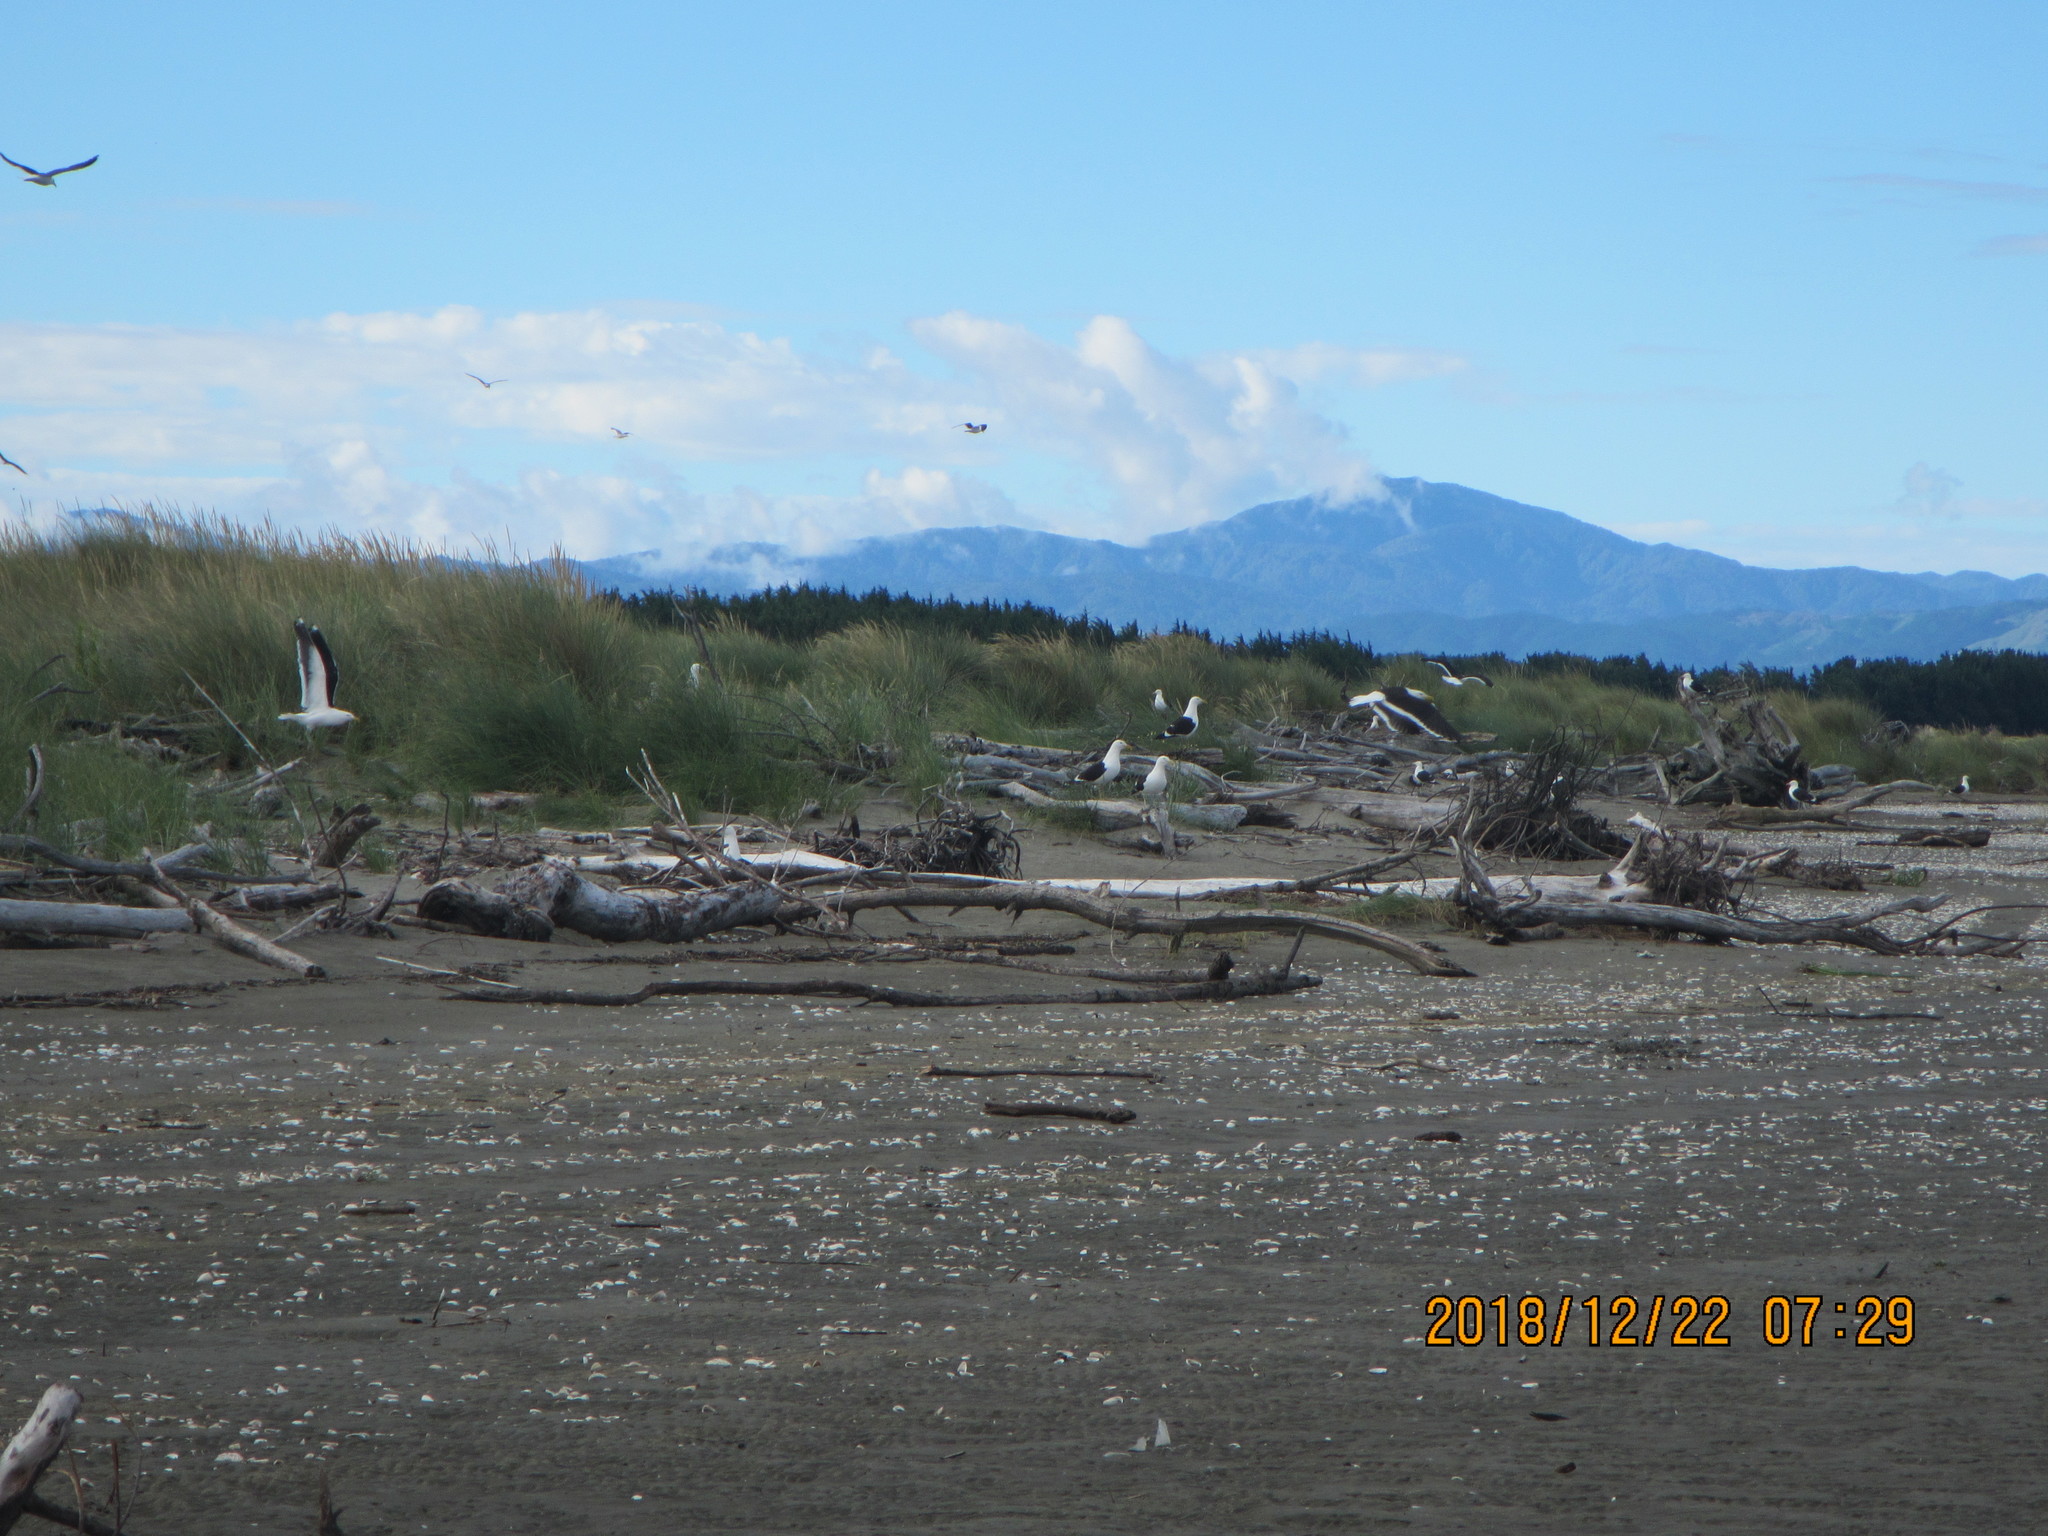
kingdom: Animalia
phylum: Chordata
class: Aves
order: Charadriiformes
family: Laridae
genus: Larus
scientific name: Larus dominicanus
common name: Kelp gull
